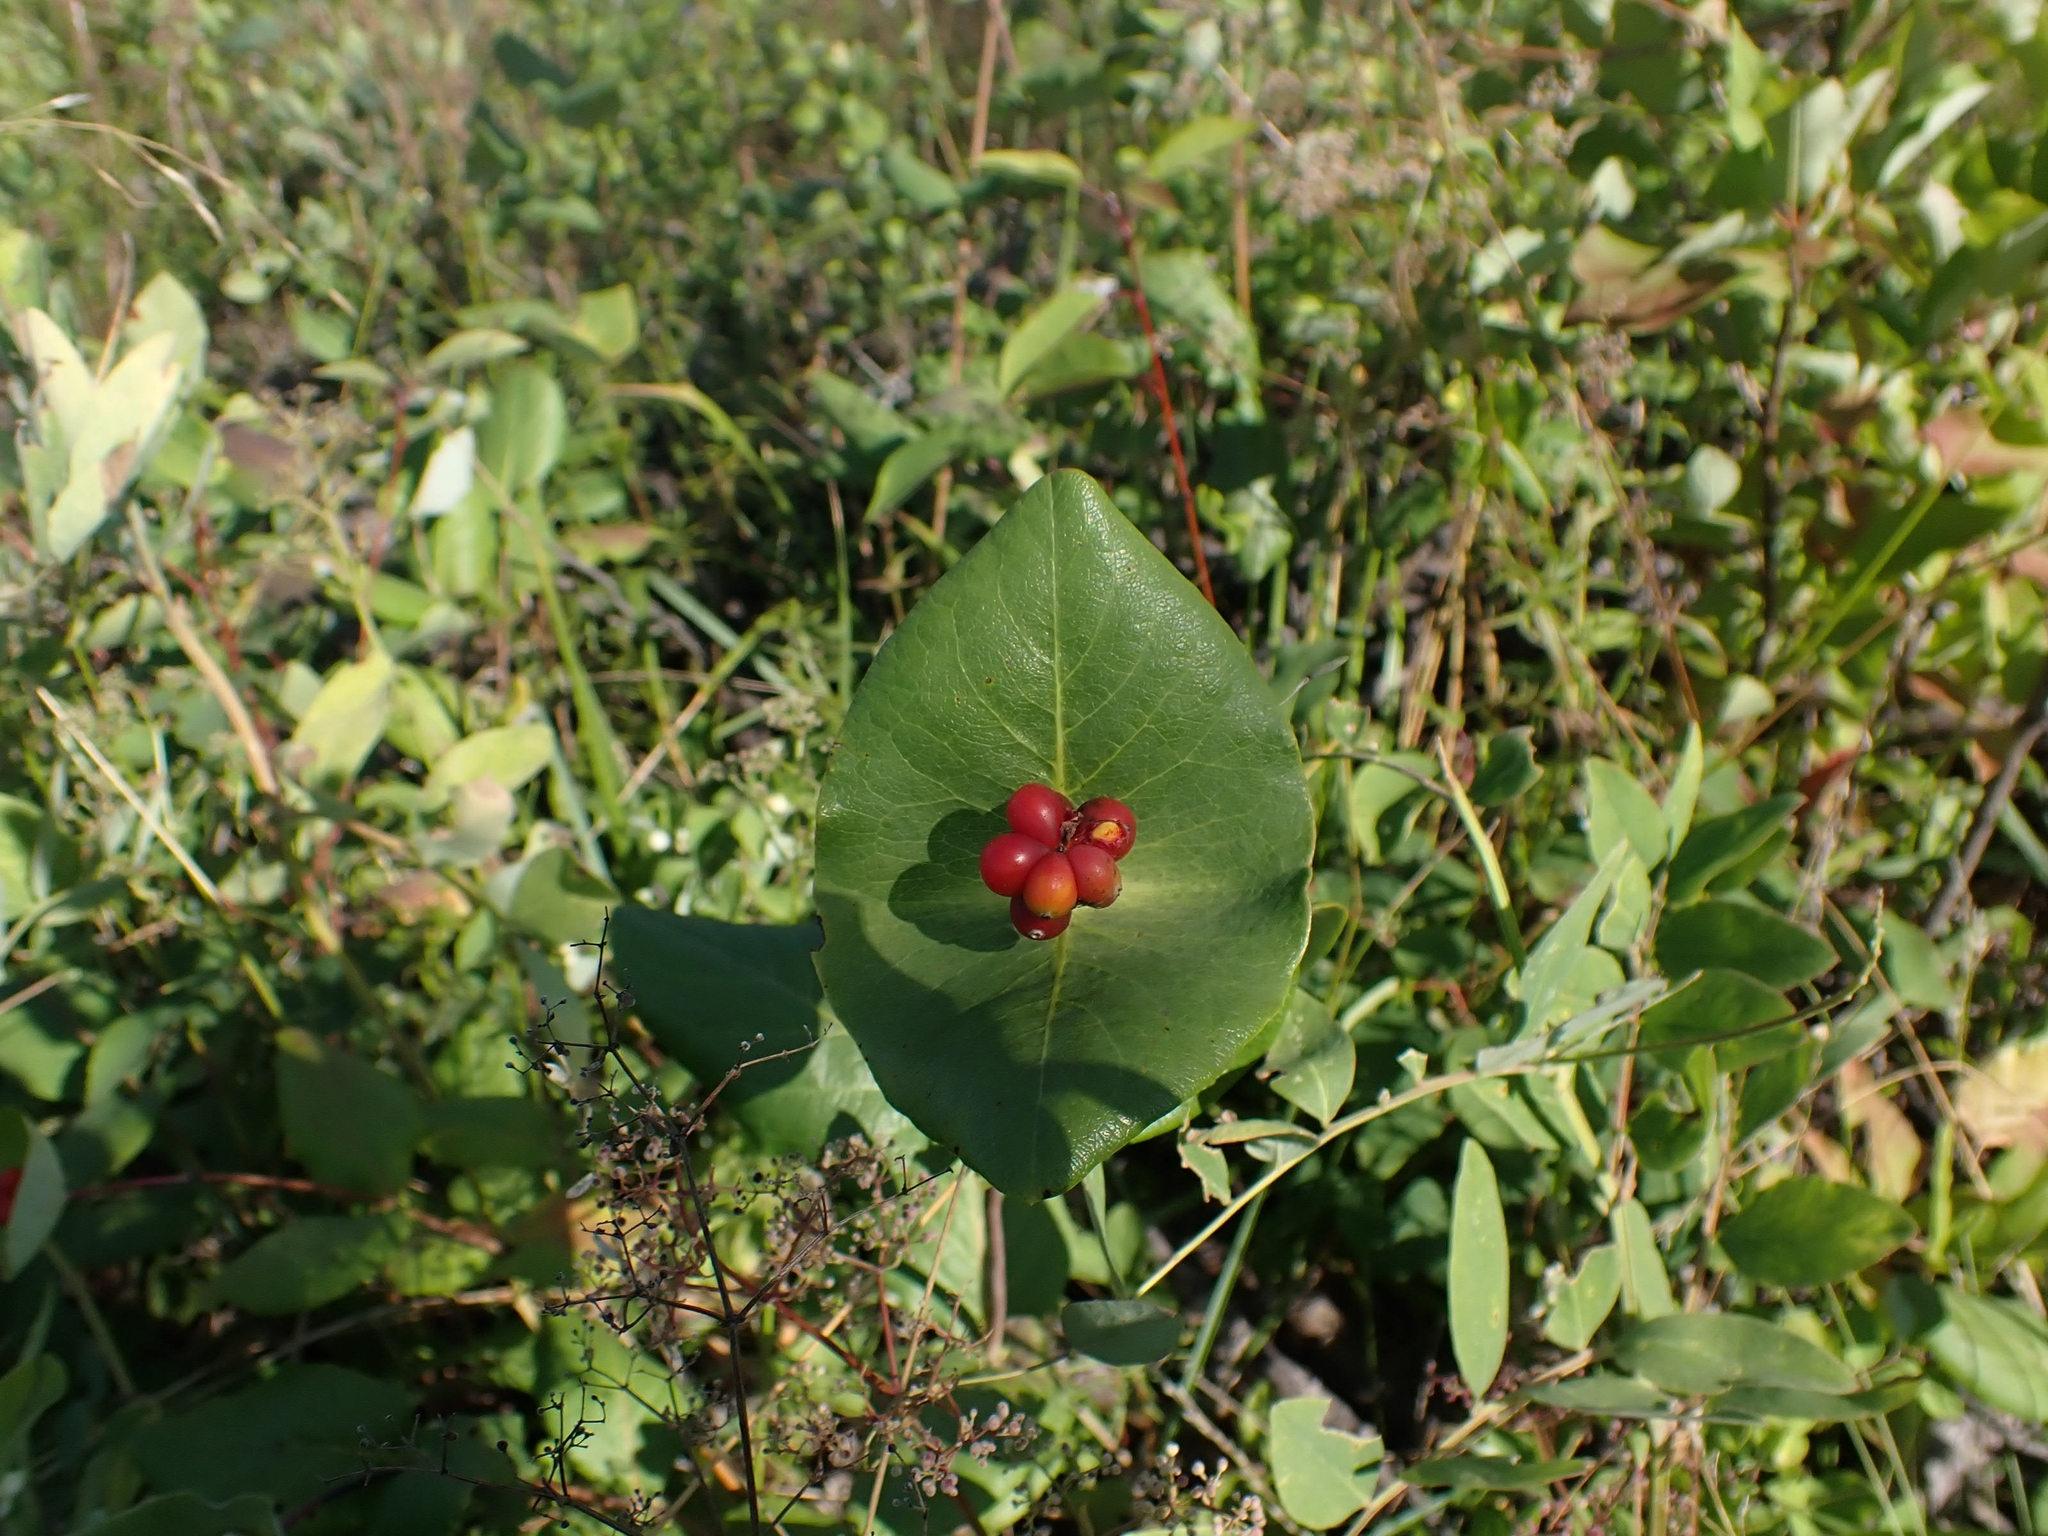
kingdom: Plantae
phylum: Tracheophyta
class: Magnoliopsida
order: Dipsacales
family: Caprifoliaceae
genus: Lonicera
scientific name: Lonicera dioica
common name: Limber honeysuckle
